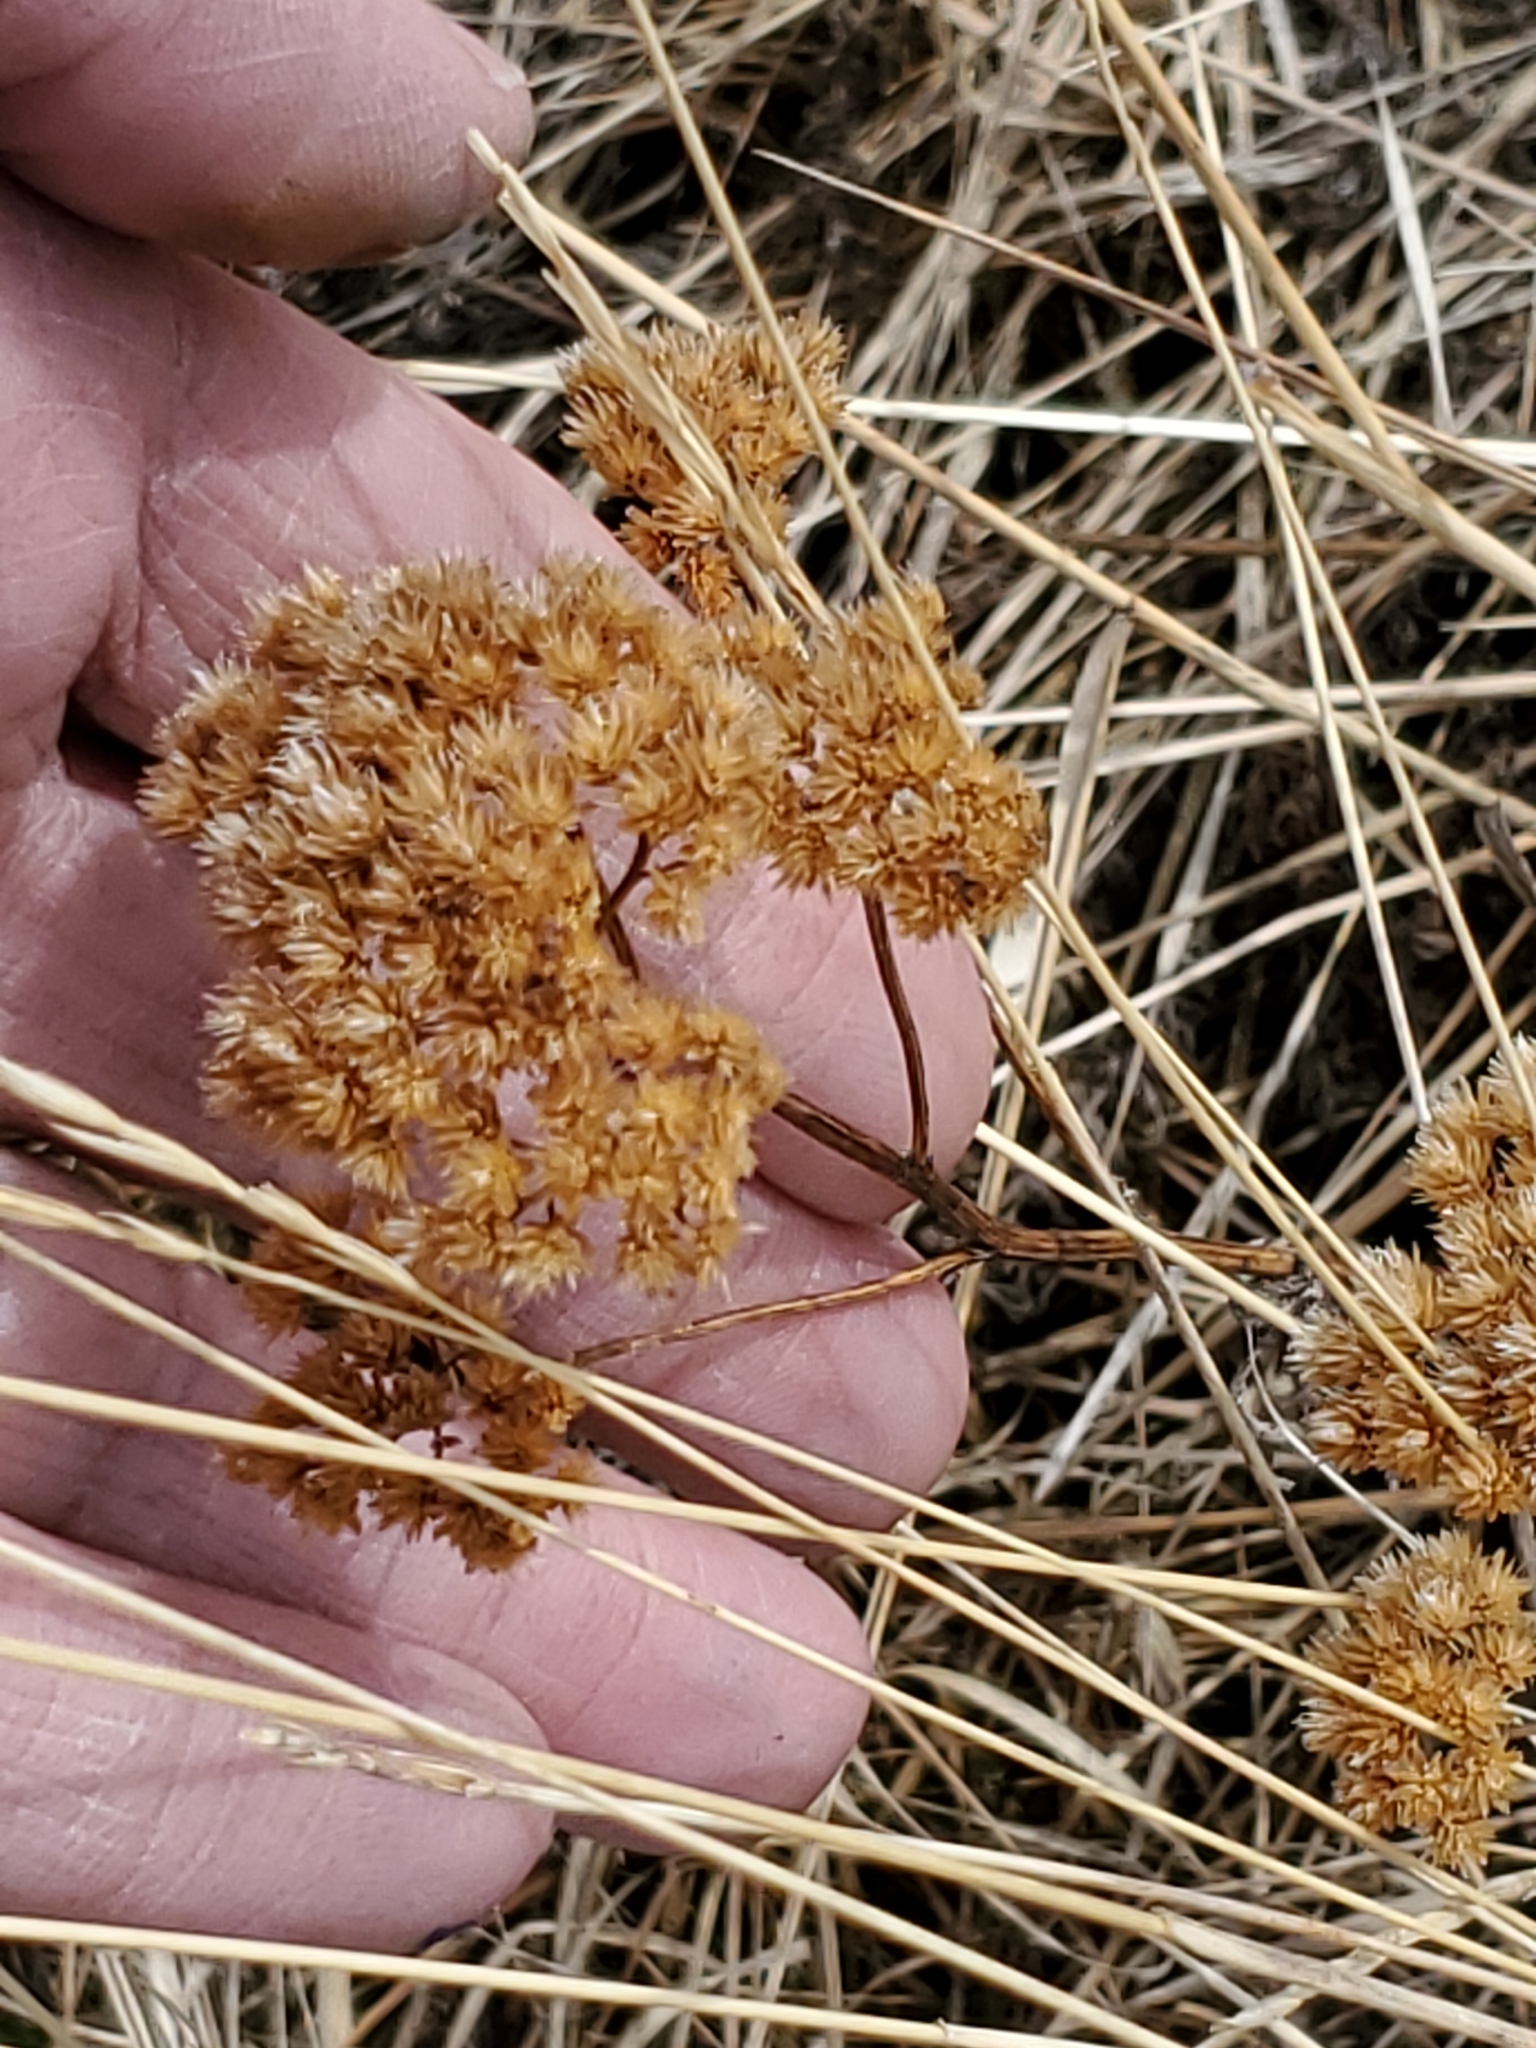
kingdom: Plantae
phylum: Tracheophyta
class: Magnoliopsida
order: Asterales
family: Asteraceae
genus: Achillea
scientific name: Achillea millefolium
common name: Yarrow
